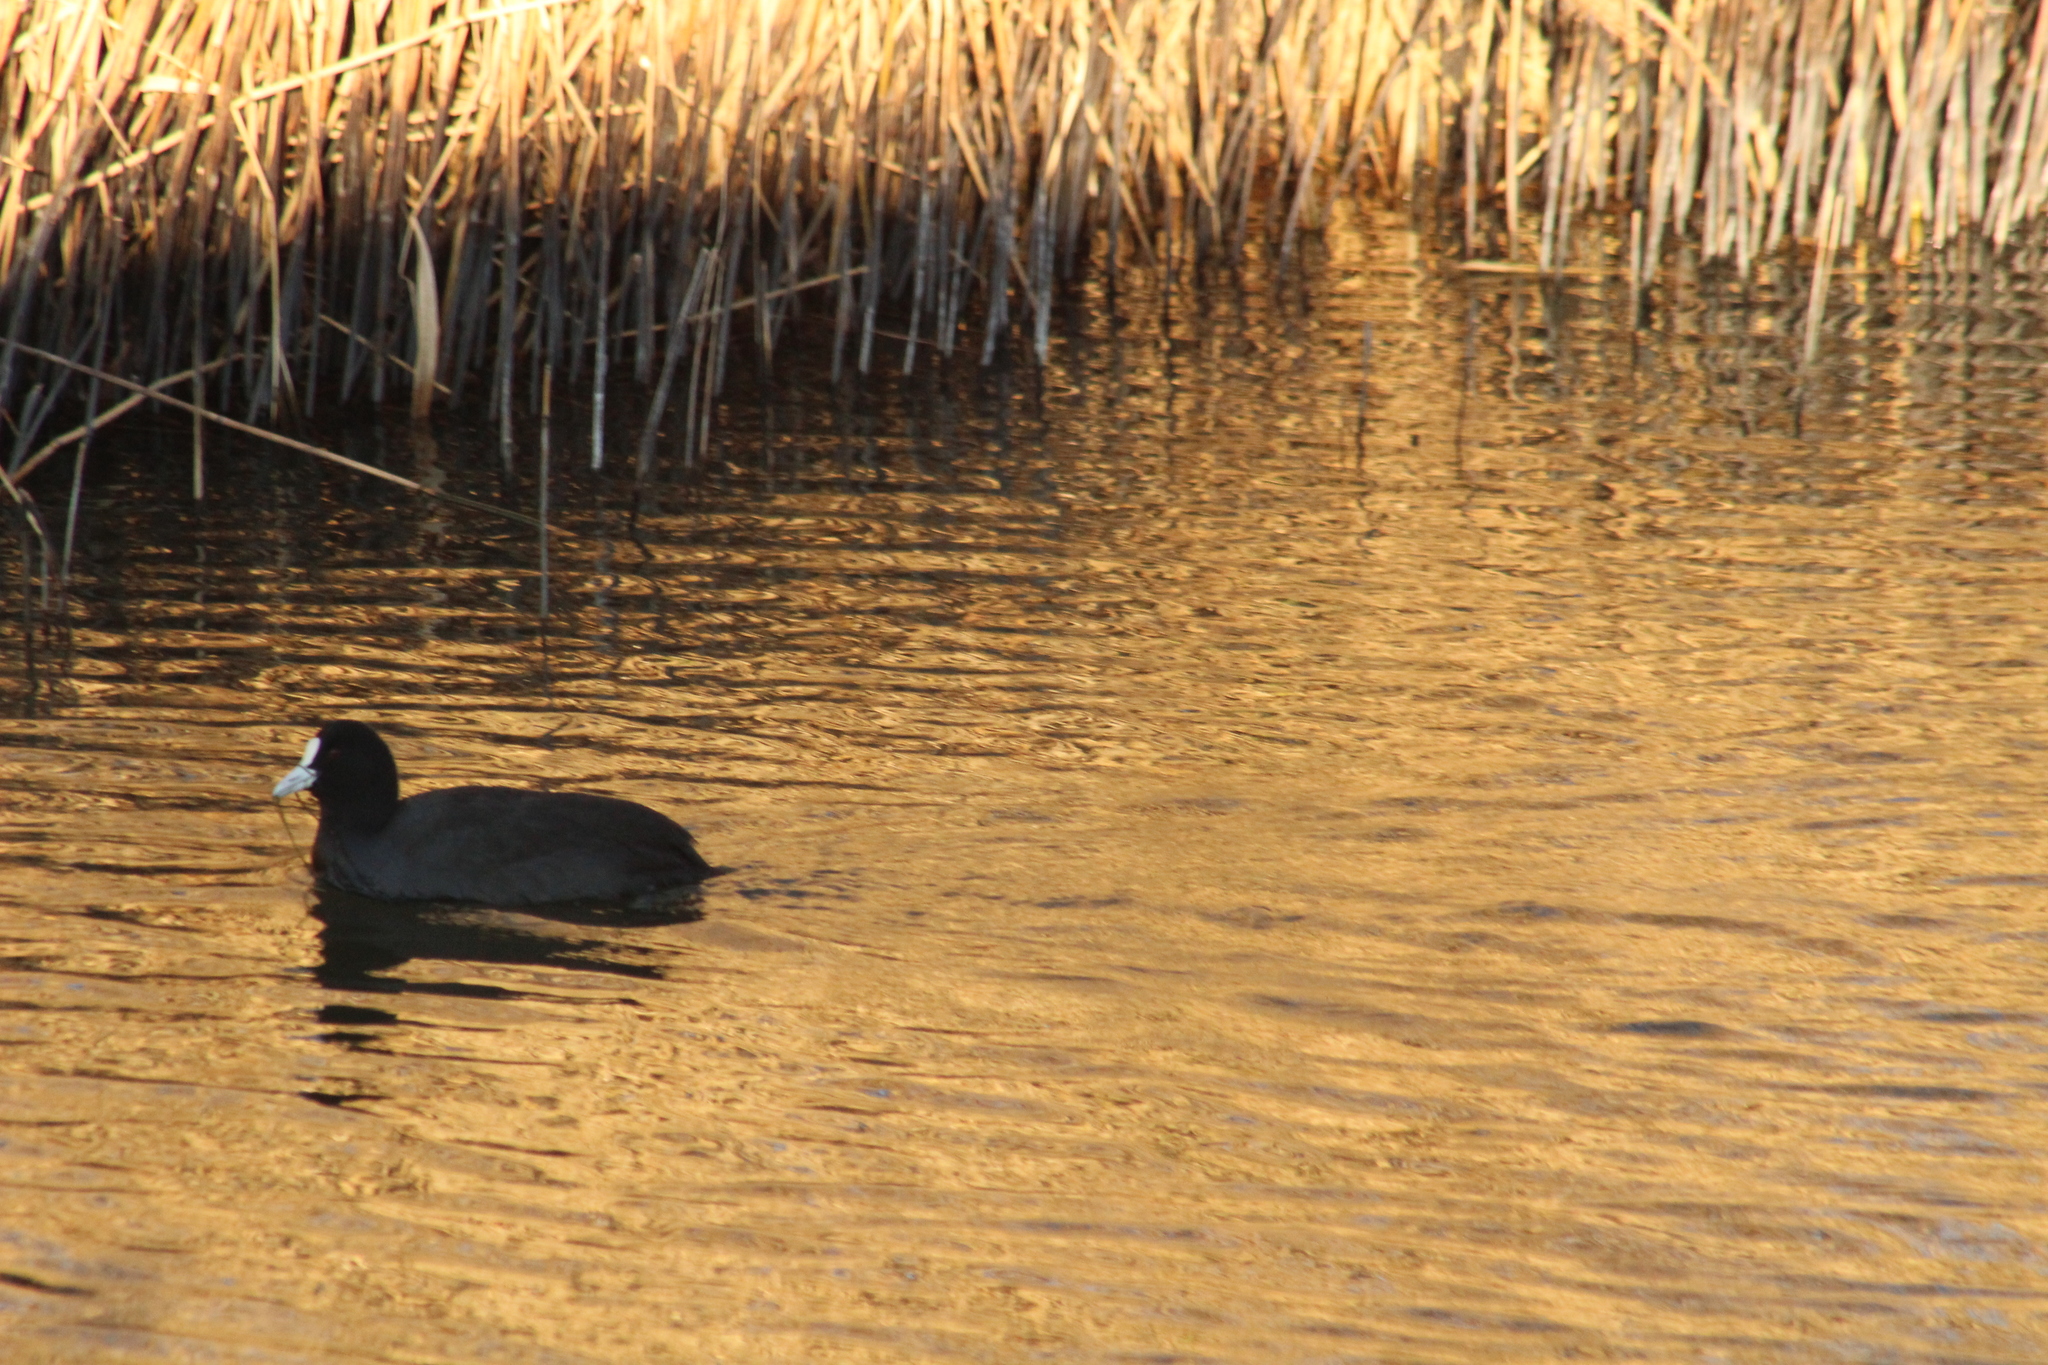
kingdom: Animalia
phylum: Chordata
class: Aves
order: Gruiformes
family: Rallidae
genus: Fulica
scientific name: Fulica atra
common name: Eurasian coot
